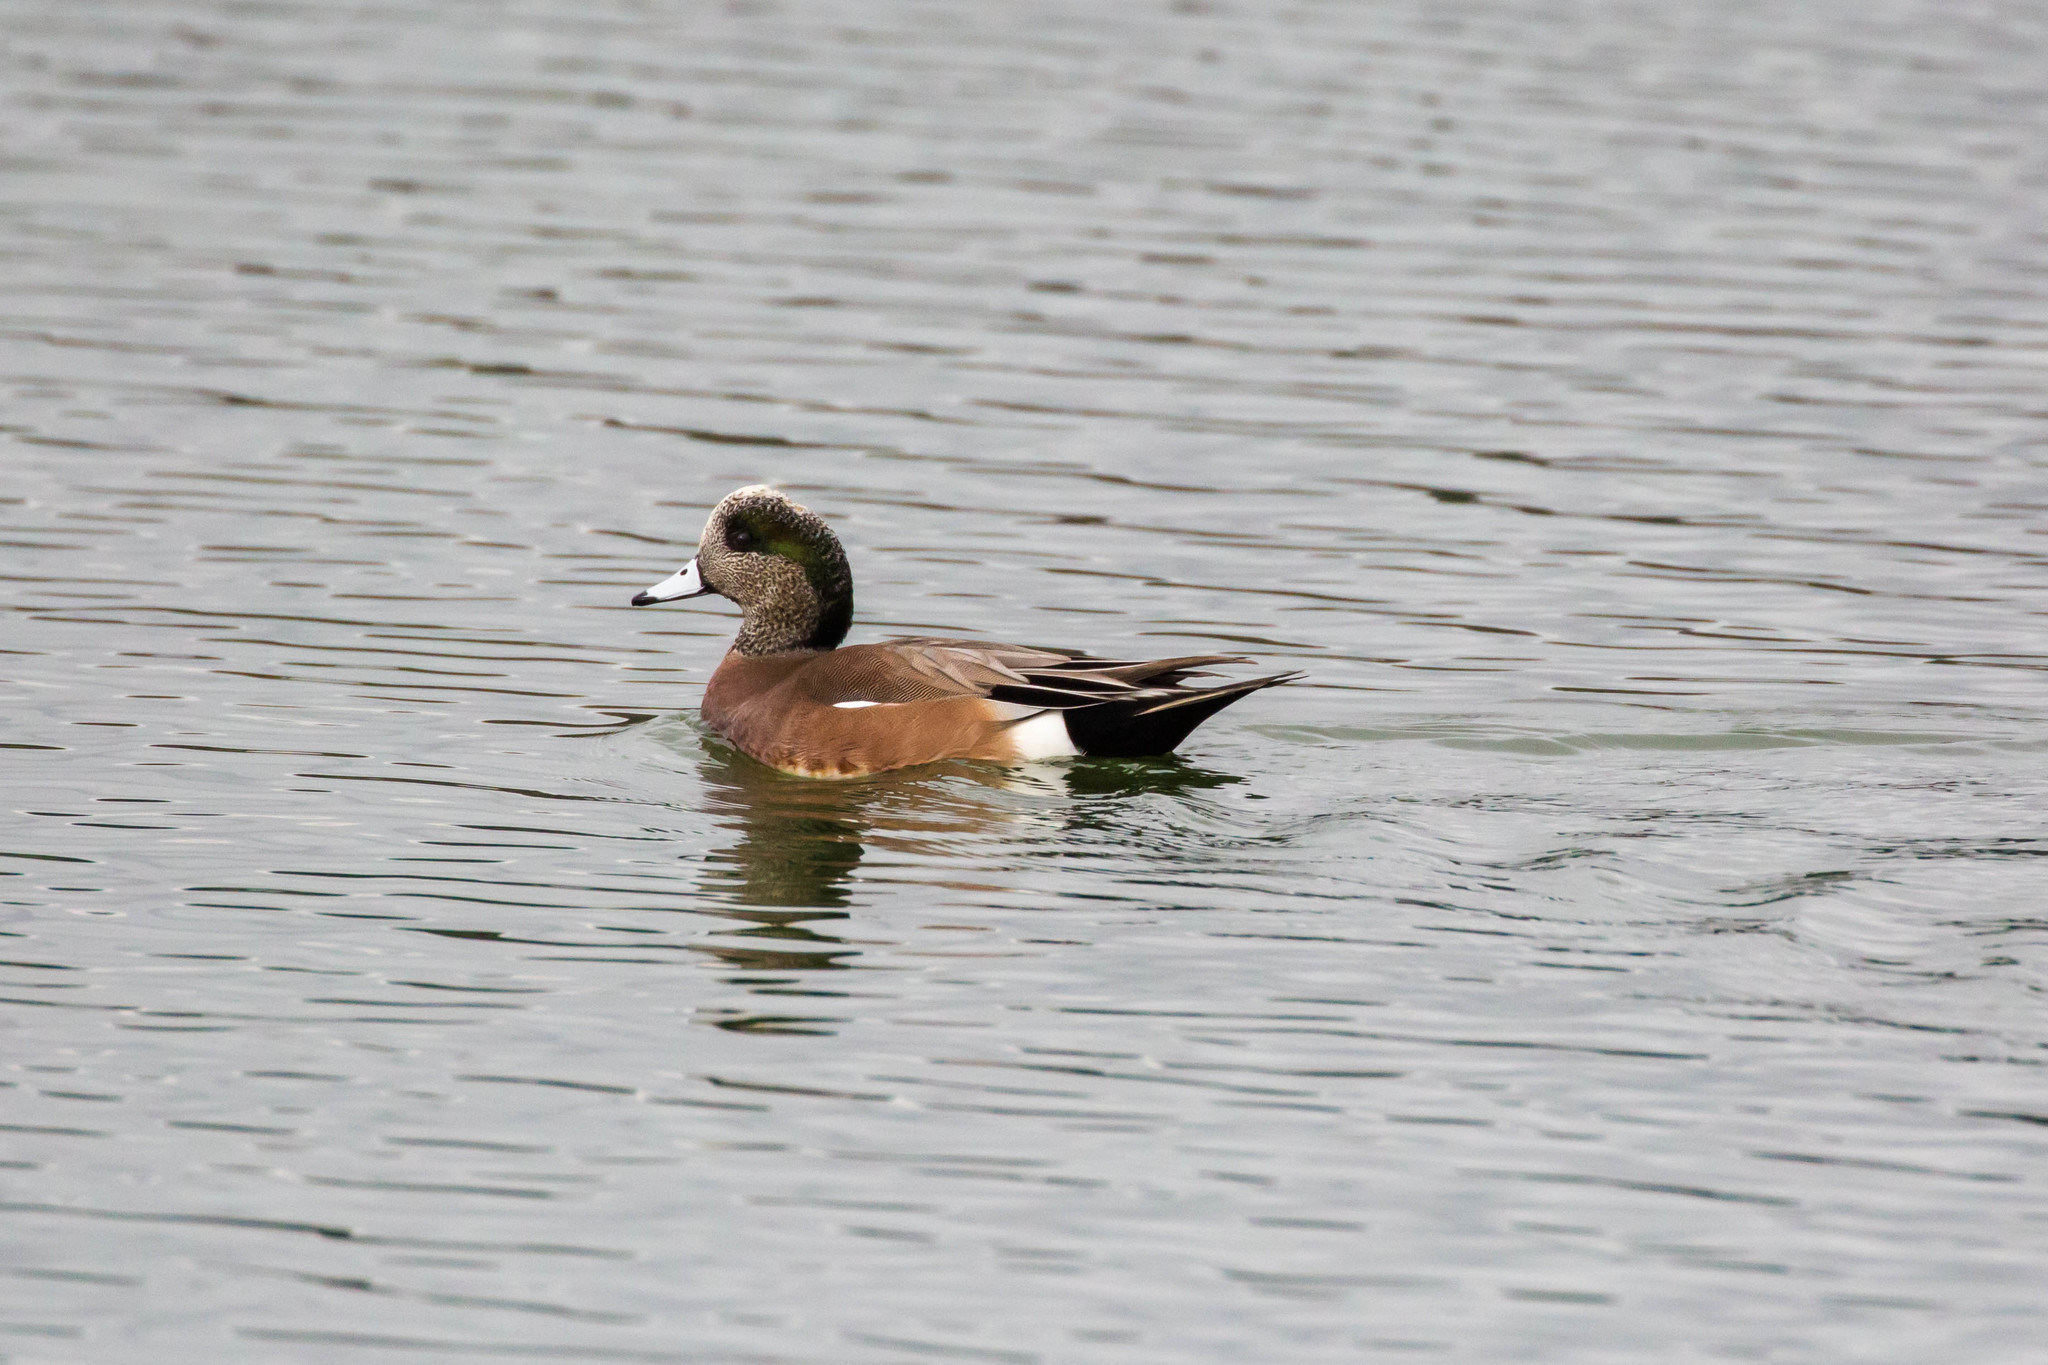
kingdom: Animalia
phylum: Chordata
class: Aves
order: Anseriformes
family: Anatidae
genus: Mareca
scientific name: Mareca americana
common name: American wigeon
